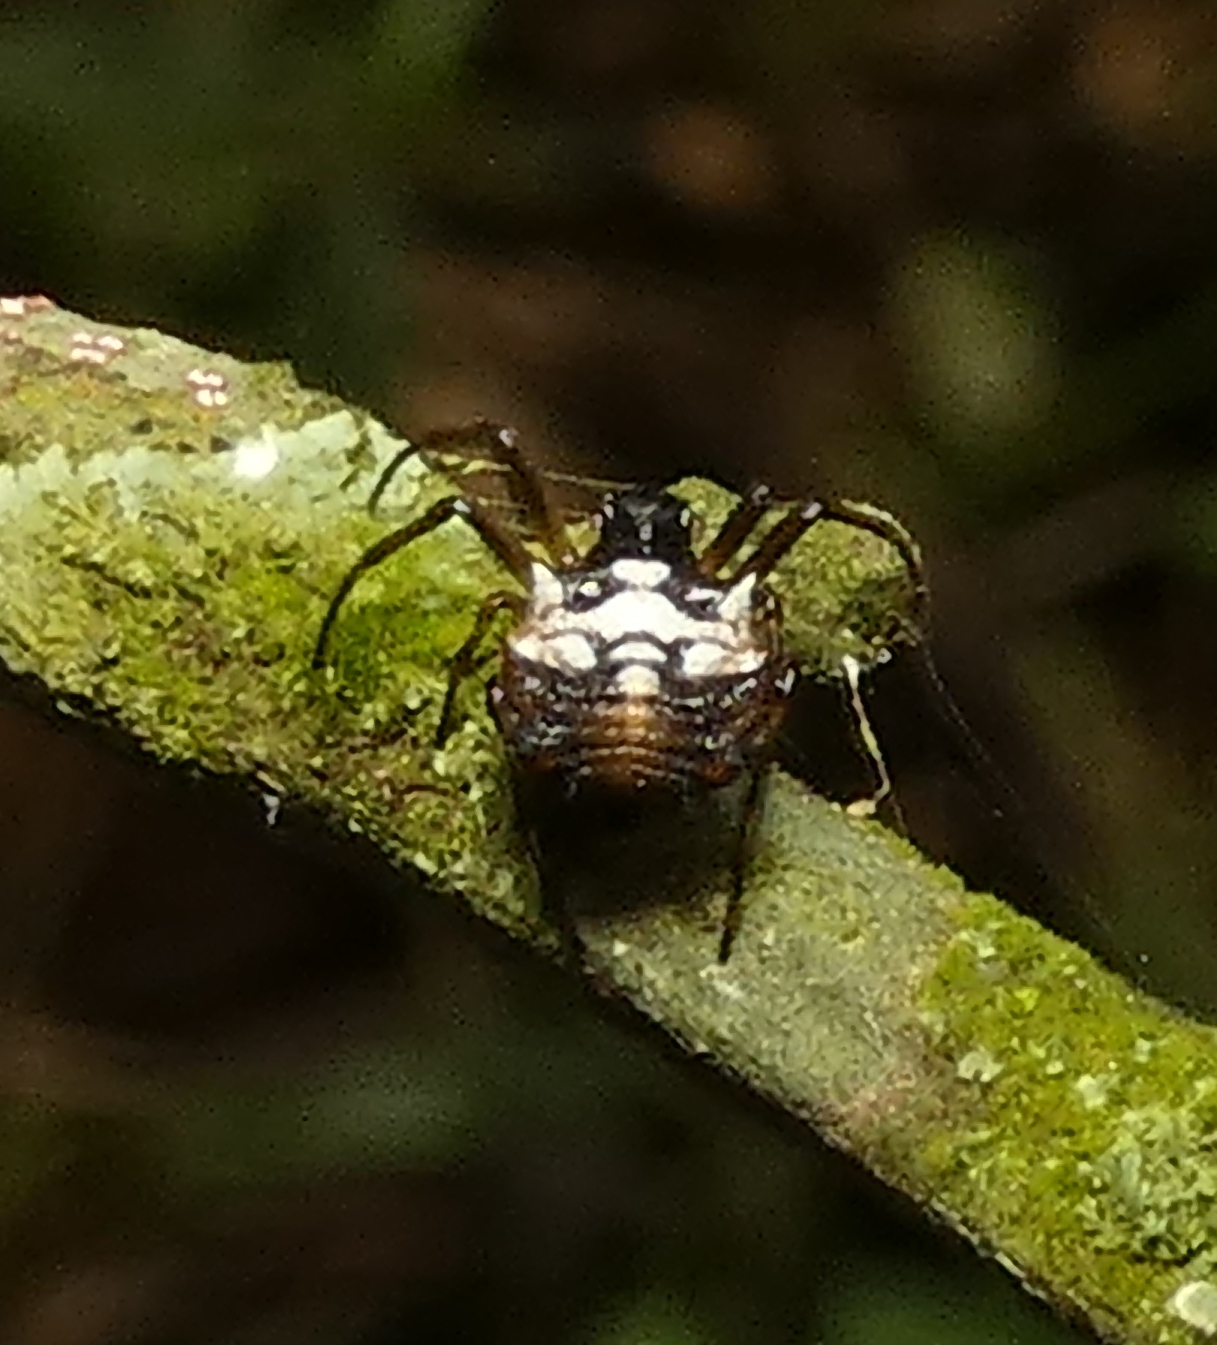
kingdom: Animalia
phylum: Arthropoda
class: Arachnida
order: Araneae
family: Araneidae
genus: Micrathena
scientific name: Micrathena picta
